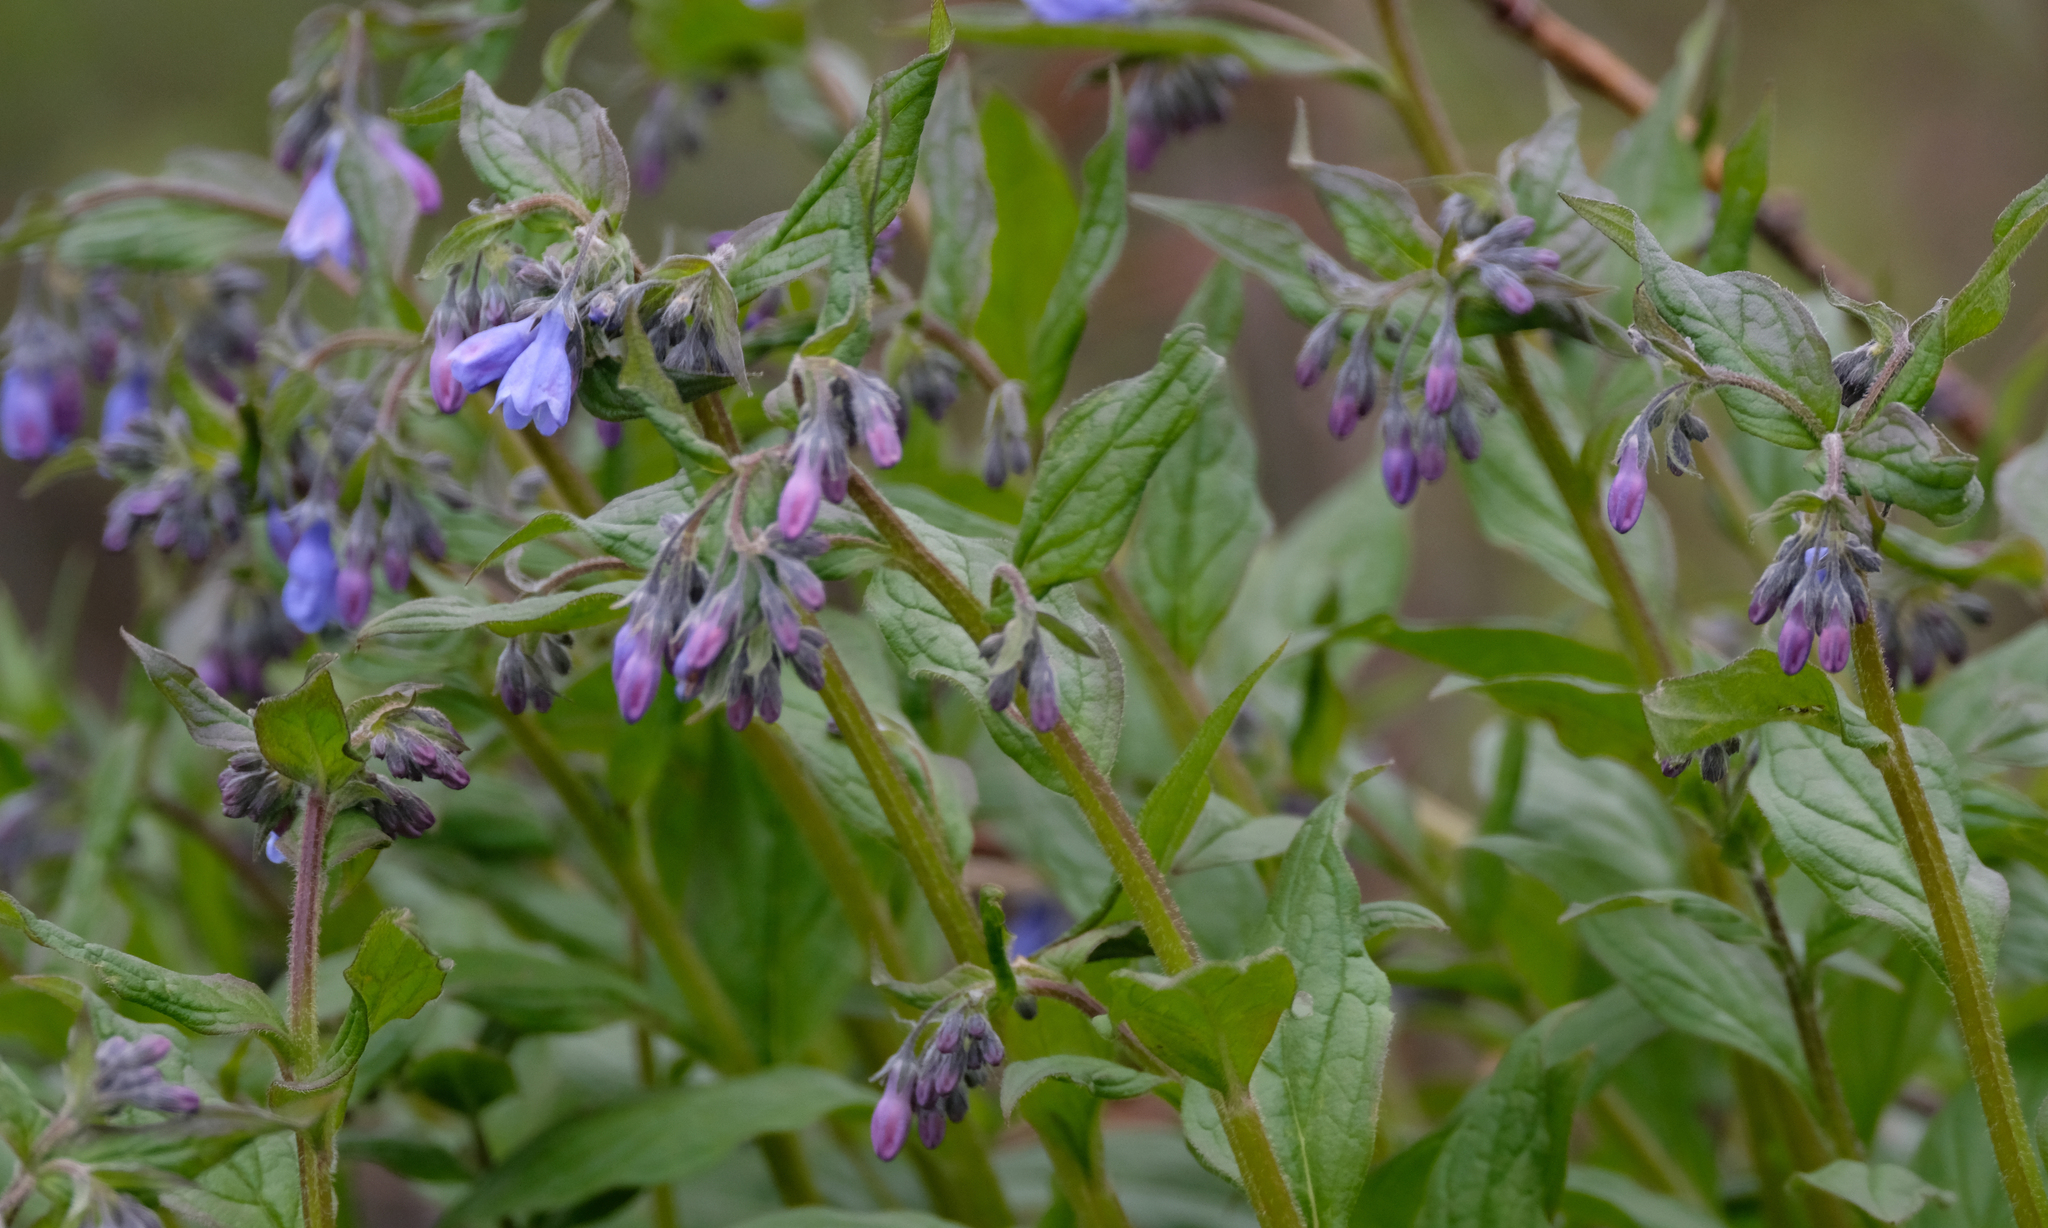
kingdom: Plantae
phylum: Tracheophyta
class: Magnoliopsida
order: Boraginales
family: Boraginaceae
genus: Mertensia
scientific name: Mertensia paniculata
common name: Panicled bluebells
